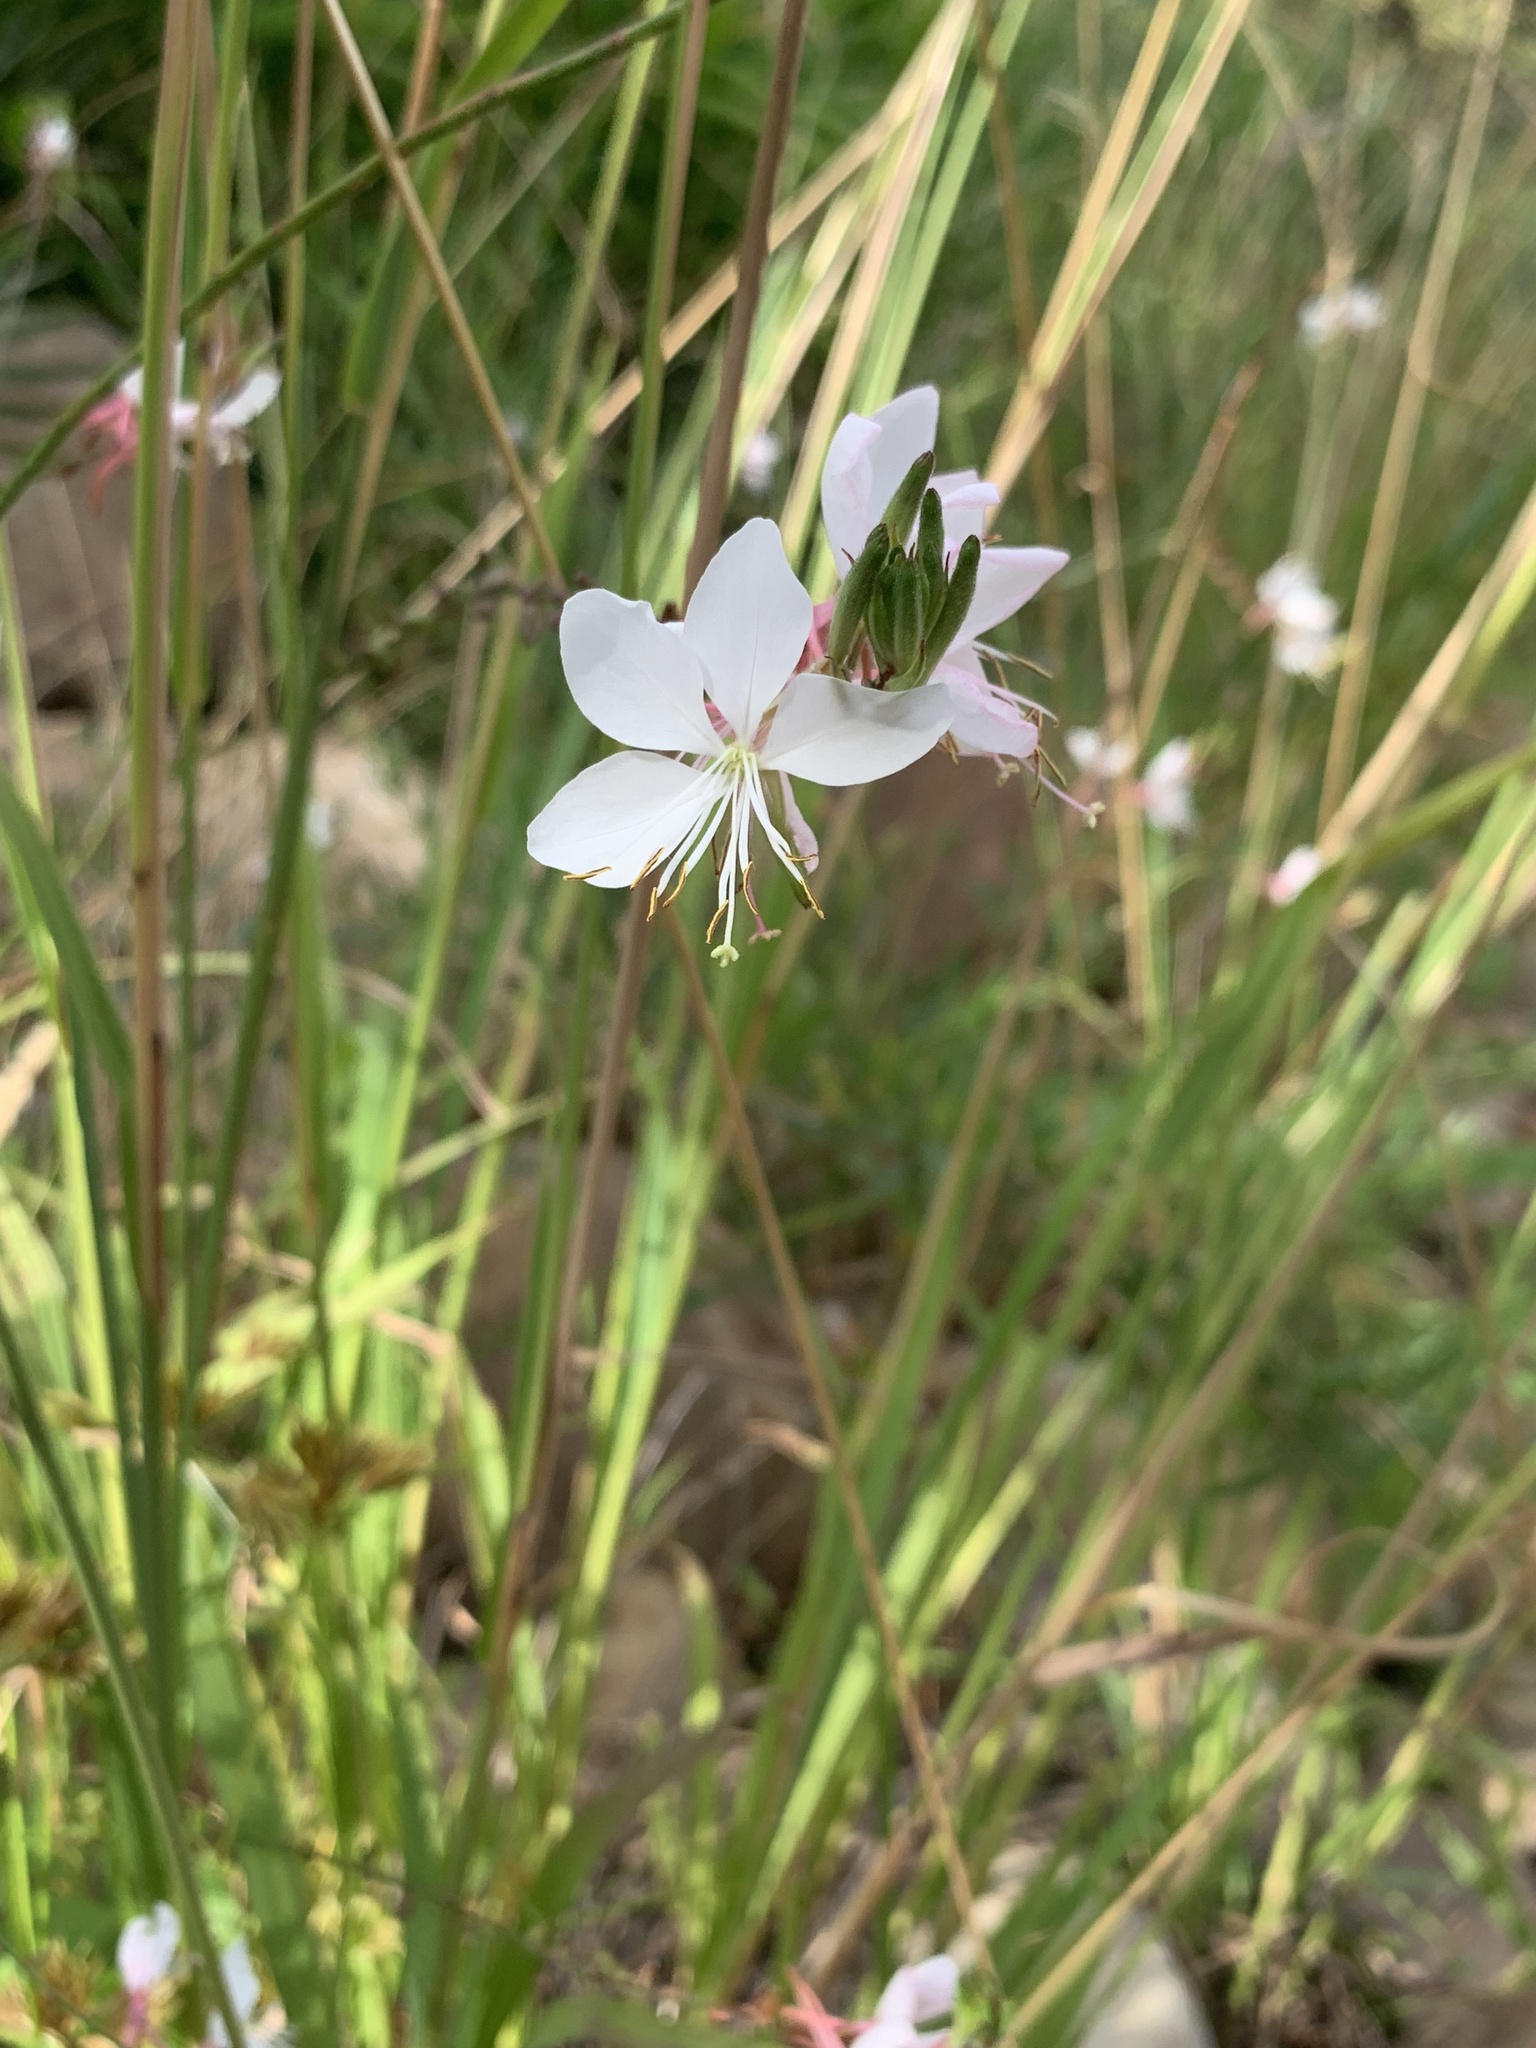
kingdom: Plantae
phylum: Tracheophyta
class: Magnoliopsida
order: Myrtales
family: Onagraceae
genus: Oenothera
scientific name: Oenothera lindheimeri
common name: Lindheimer's beeblossom
